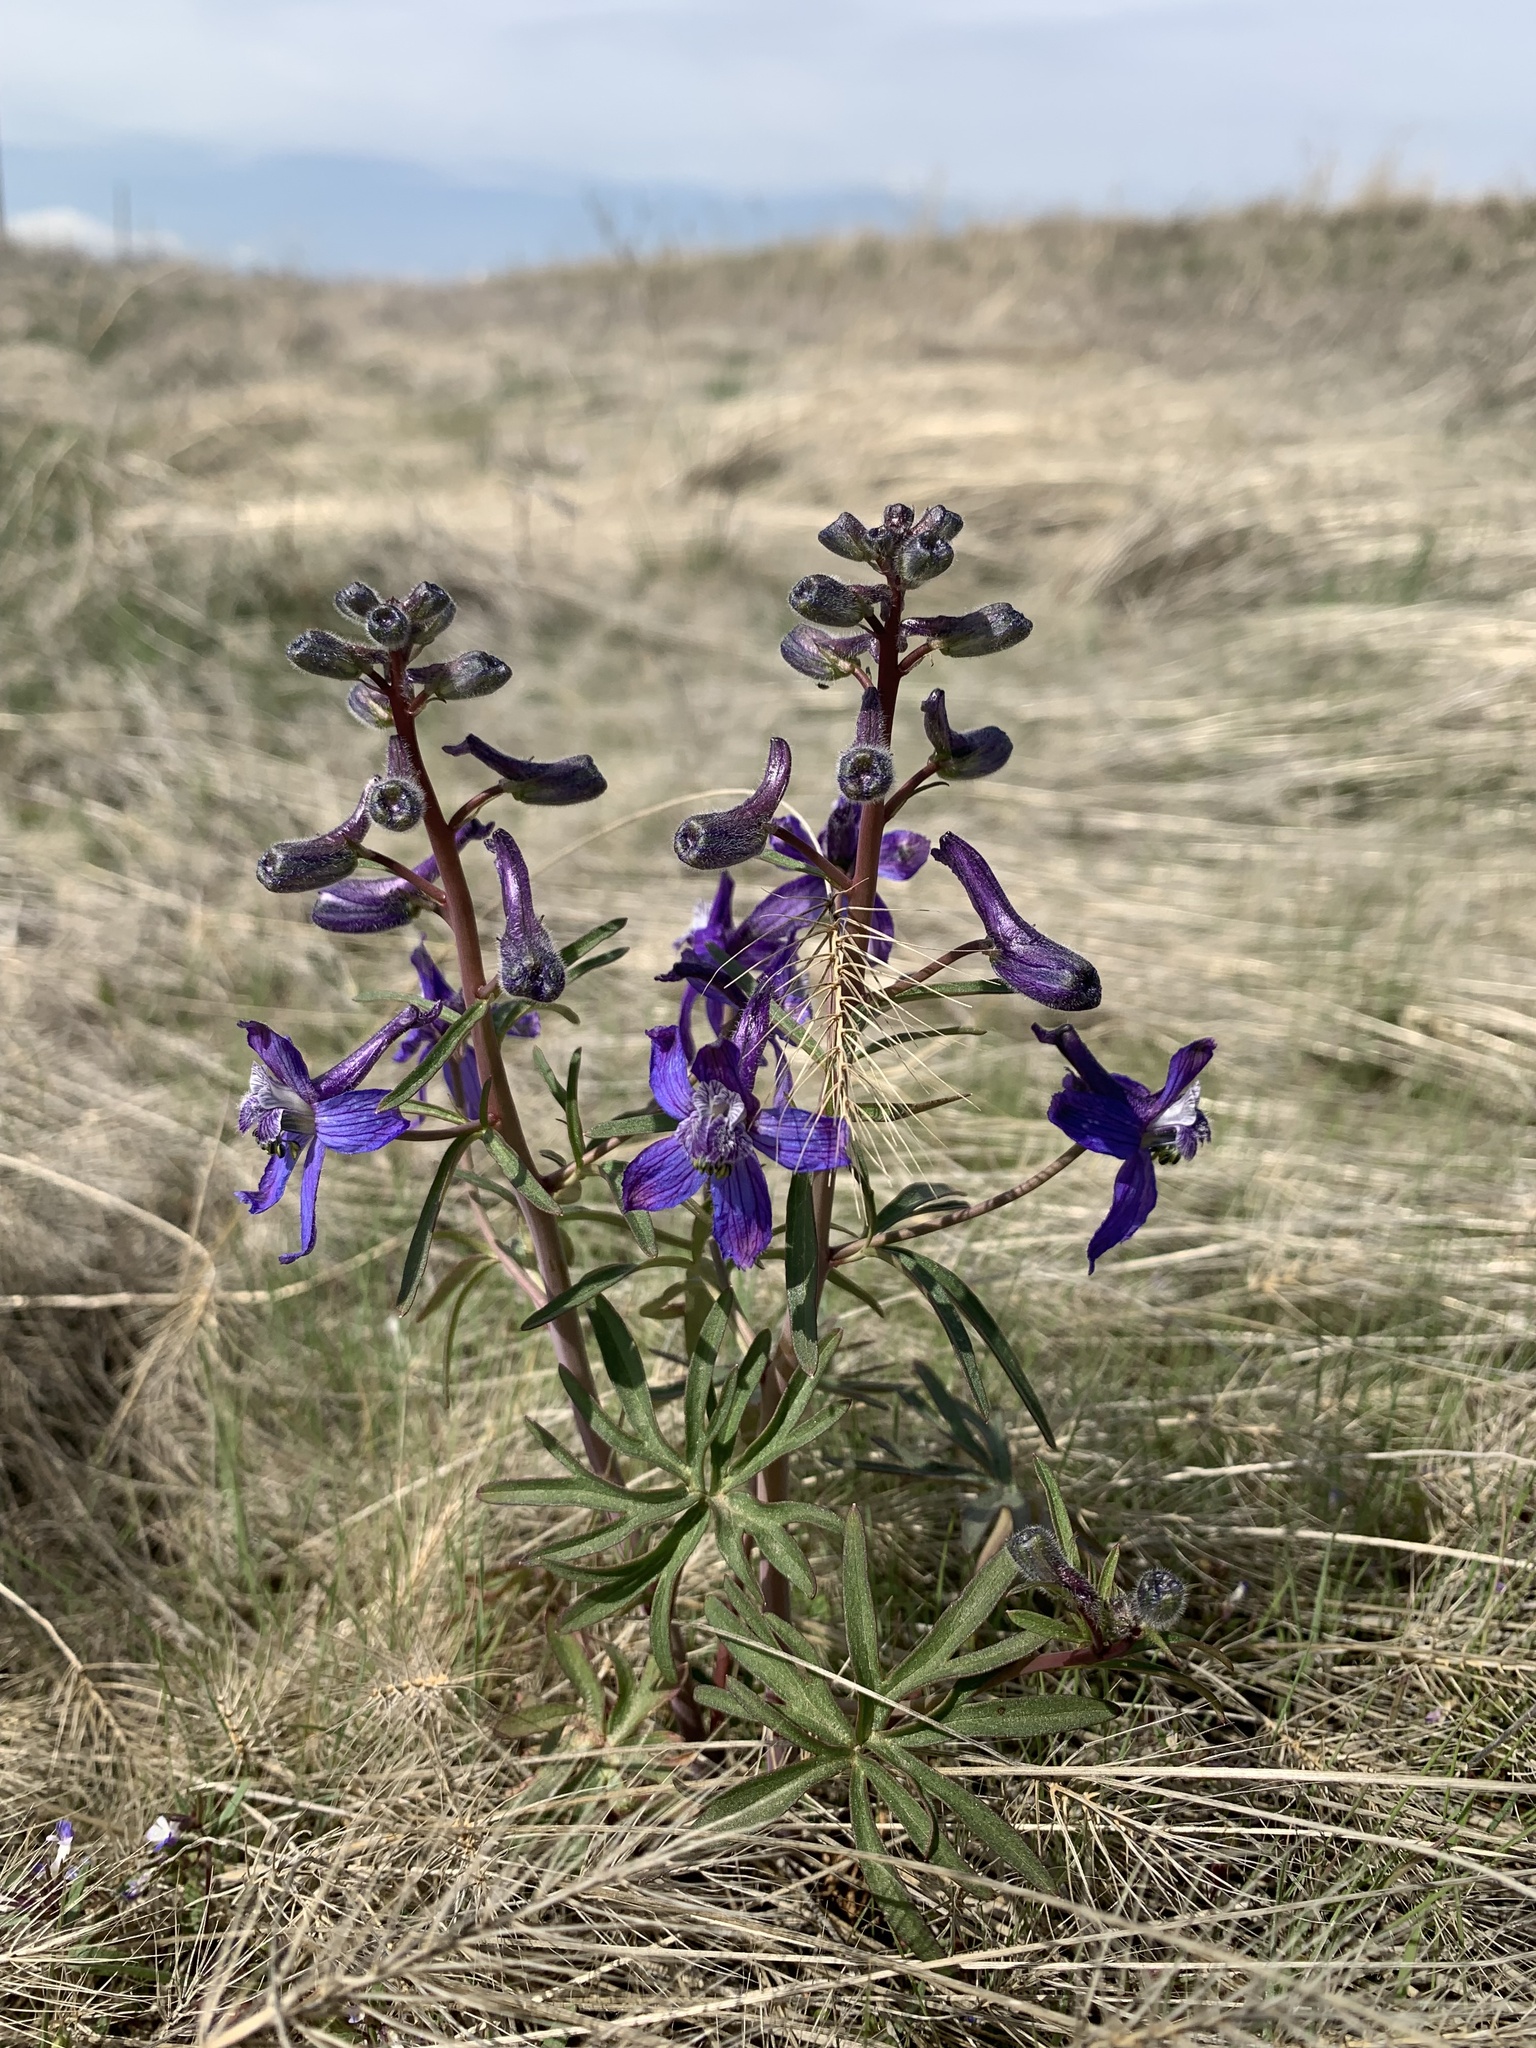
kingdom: Plantae
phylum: Tracheophyta
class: Magnoliopsida
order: Ranunculales
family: Ranunculaceae
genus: Delphinium
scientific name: Delphinium nuttallianum
